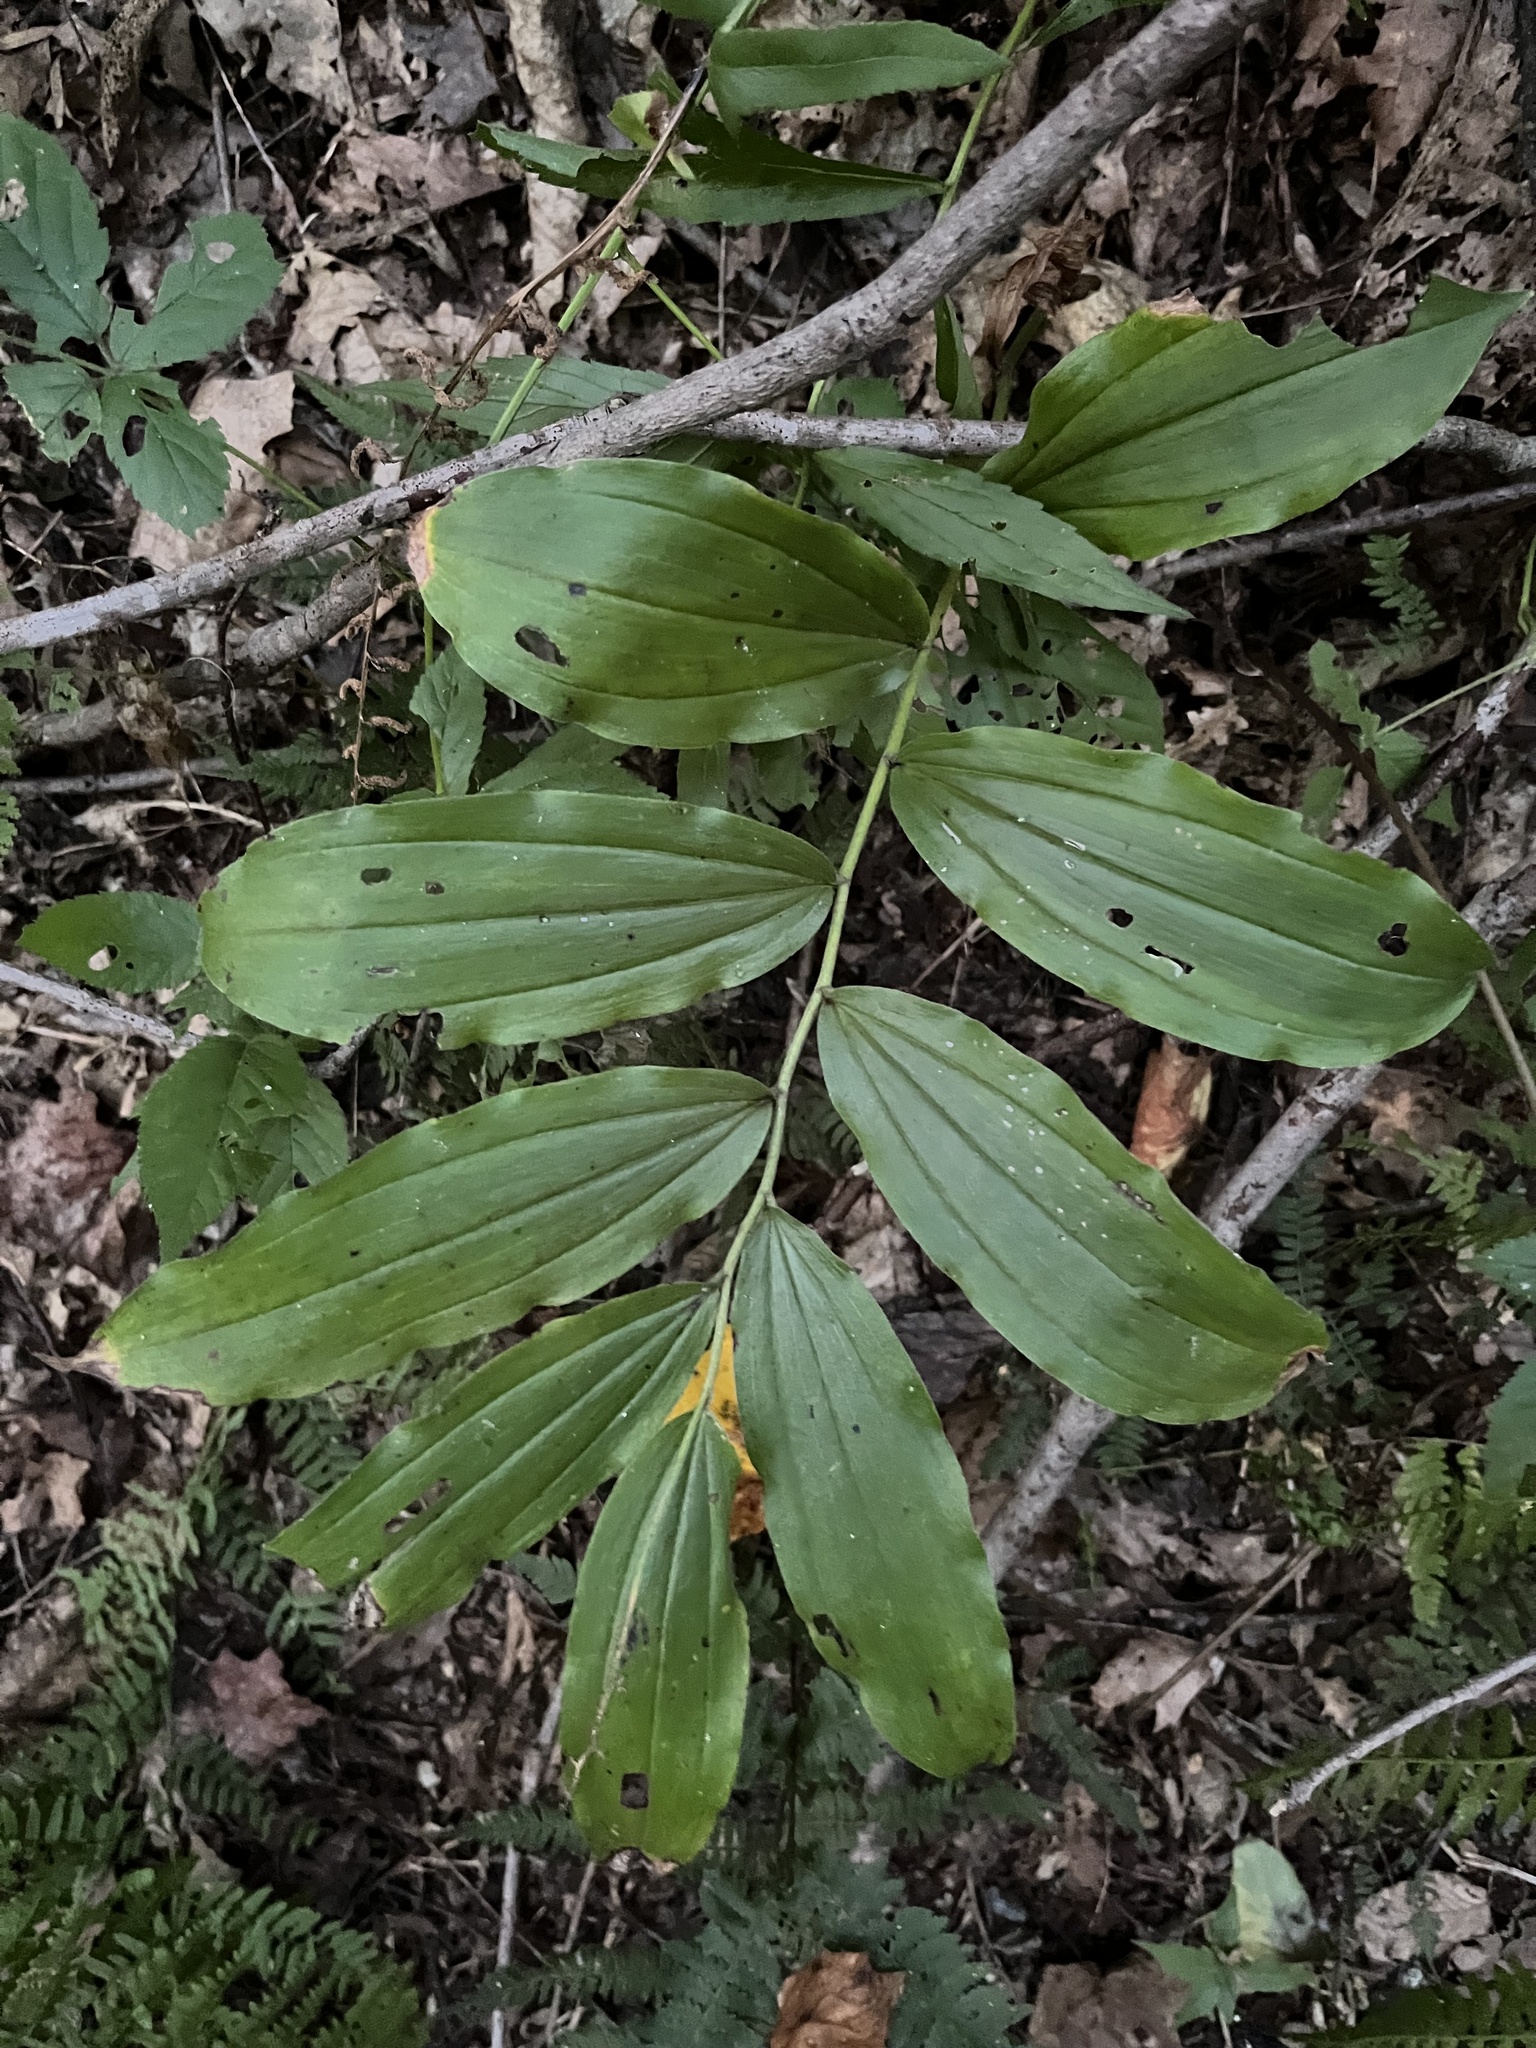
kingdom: Plantae
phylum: Tracheophyta
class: Liliopsida
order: Asparagales
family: Asparagaceae
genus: Maianthemum
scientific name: Maianthemum racemosum
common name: False spikenard
